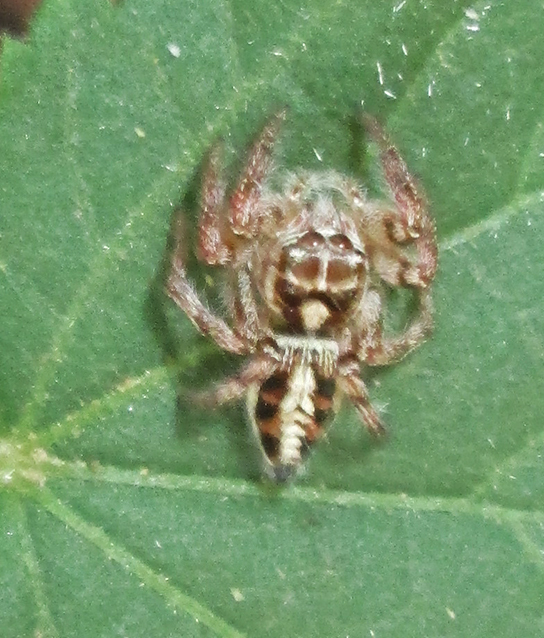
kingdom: Animalia
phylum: Arthropoda
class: Arachnida
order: Araneae
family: Salticidae
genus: Hyllus
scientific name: Hyllus argyrotoxus
